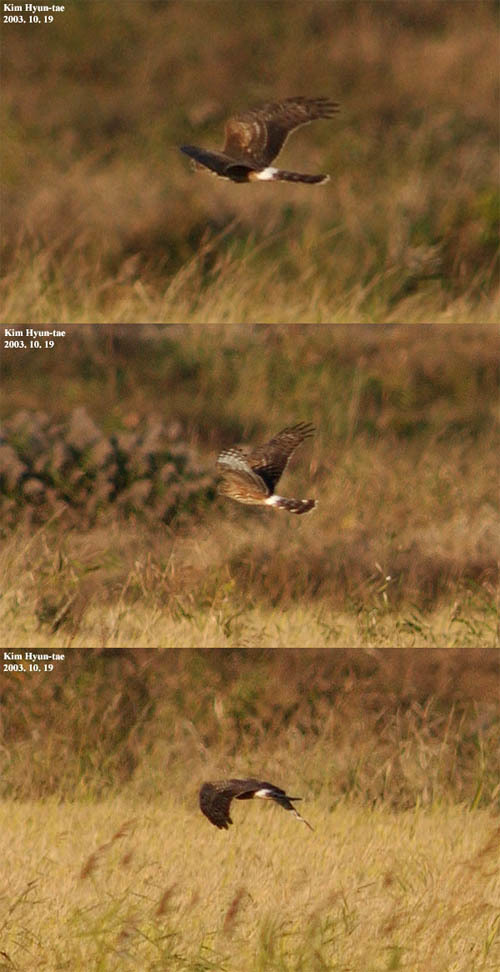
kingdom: Animalia
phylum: Chordata
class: Aves
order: Accipitriformes
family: Accipitridae
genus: Circus
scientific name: Circus cyaneus
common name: Hen harrier
